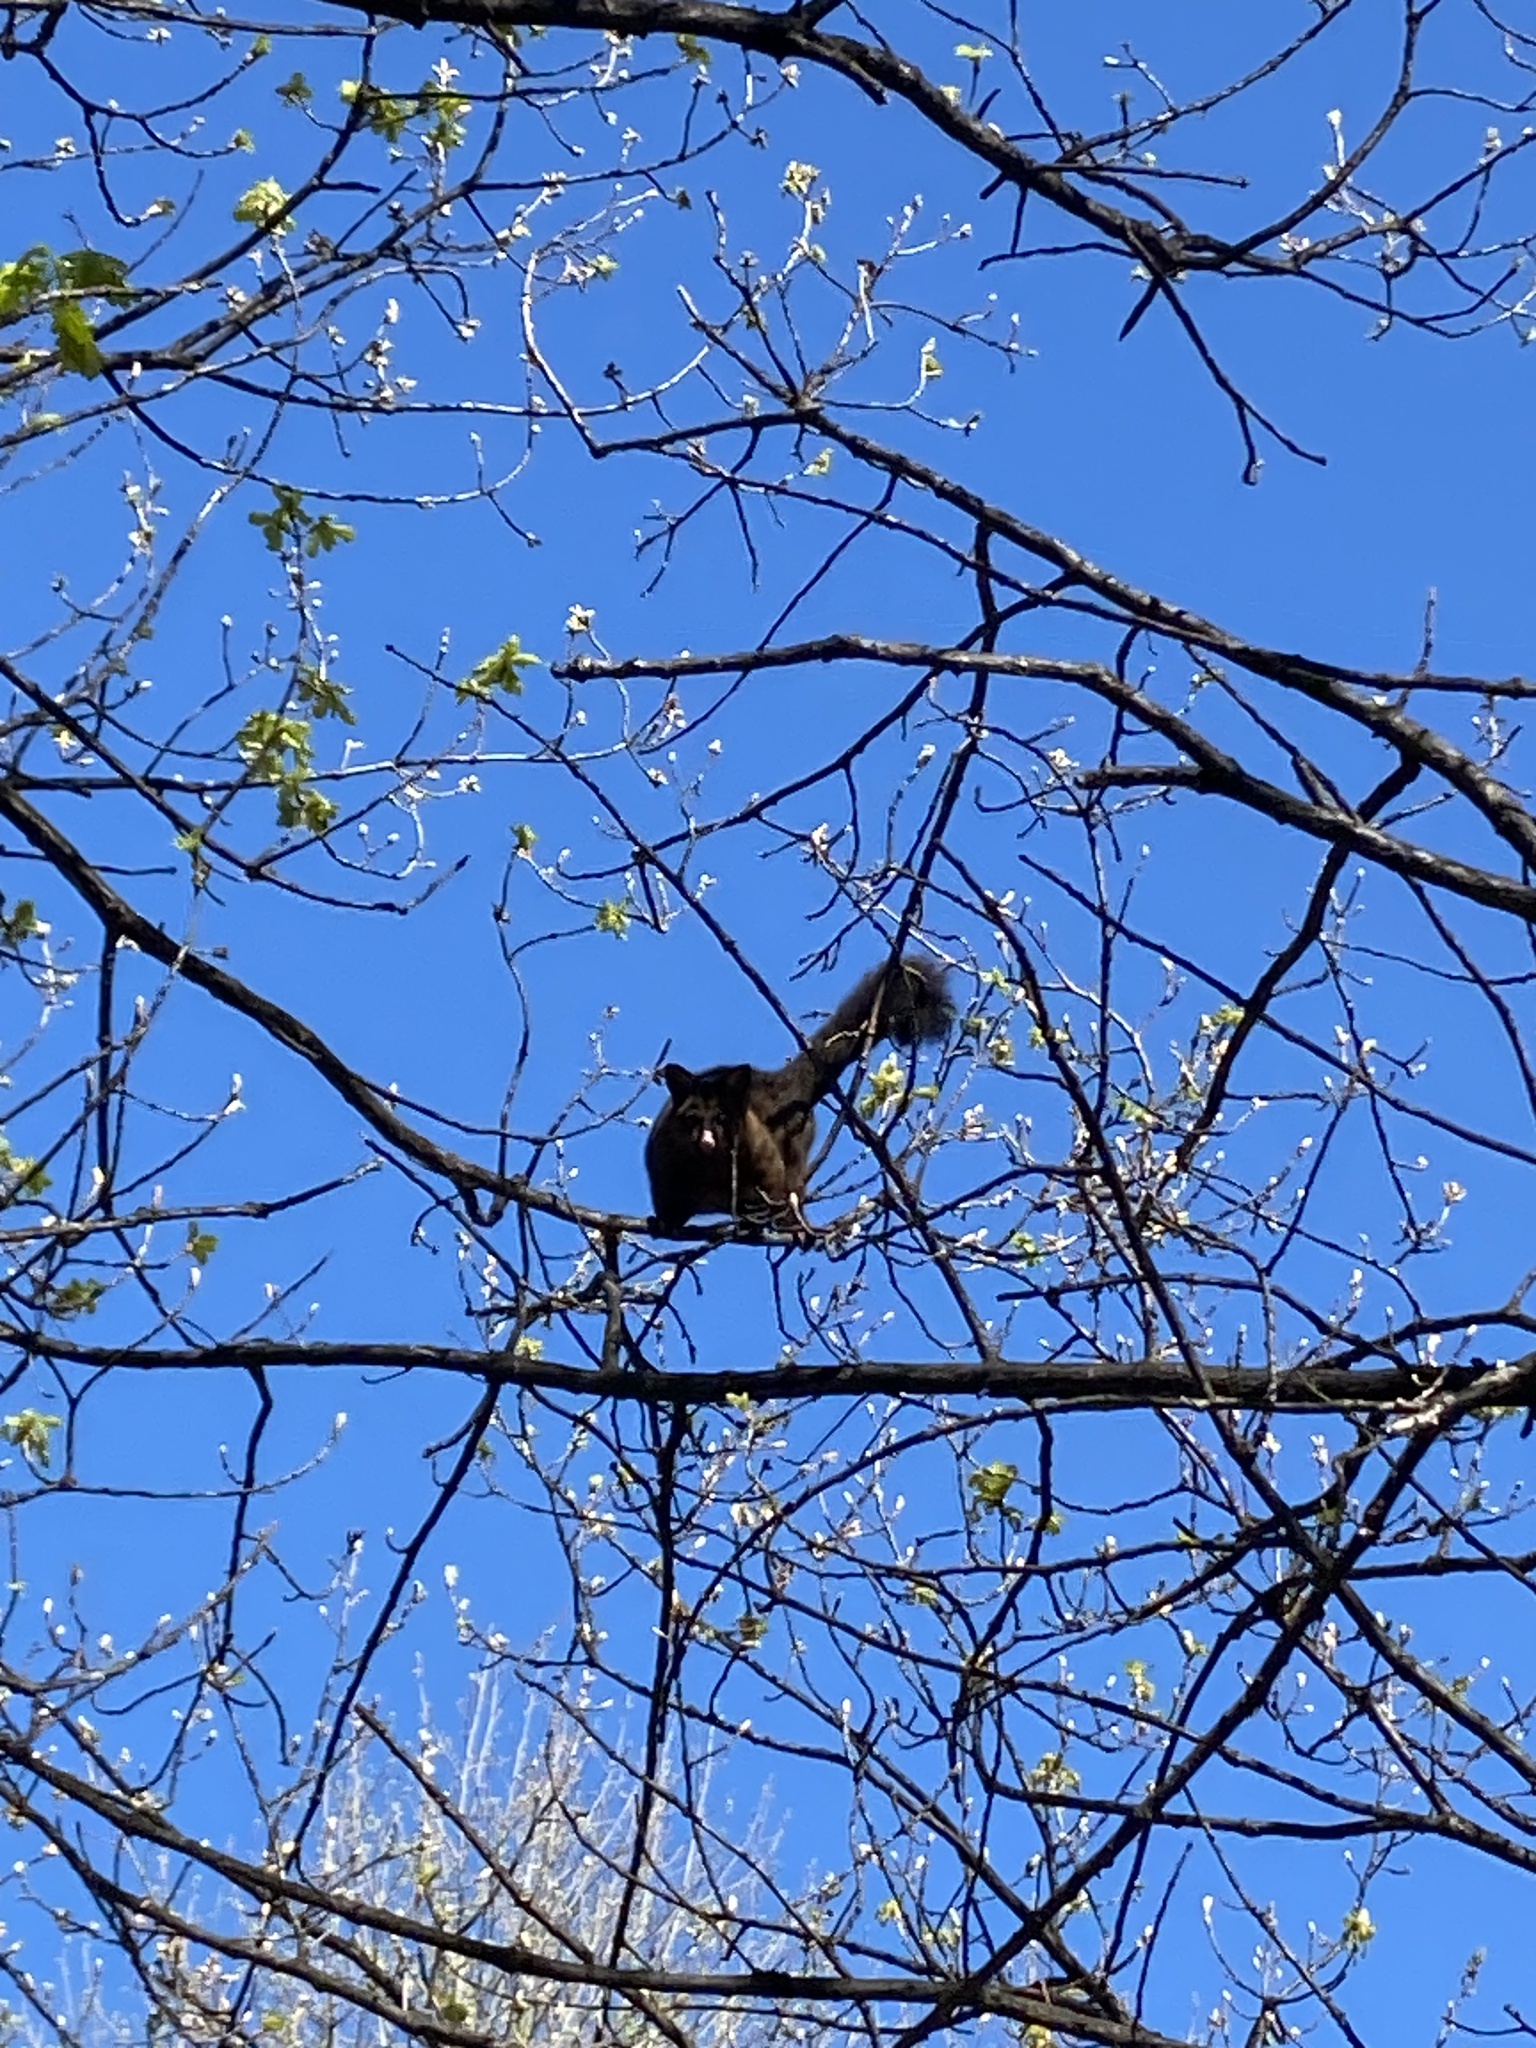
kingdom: Animalia
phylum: Chordata
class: Mammalia
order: Diprotodontia
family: Phalangeridae
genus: Trichosurus
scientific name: Trichosurus vulpecula
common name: Common brushtail
